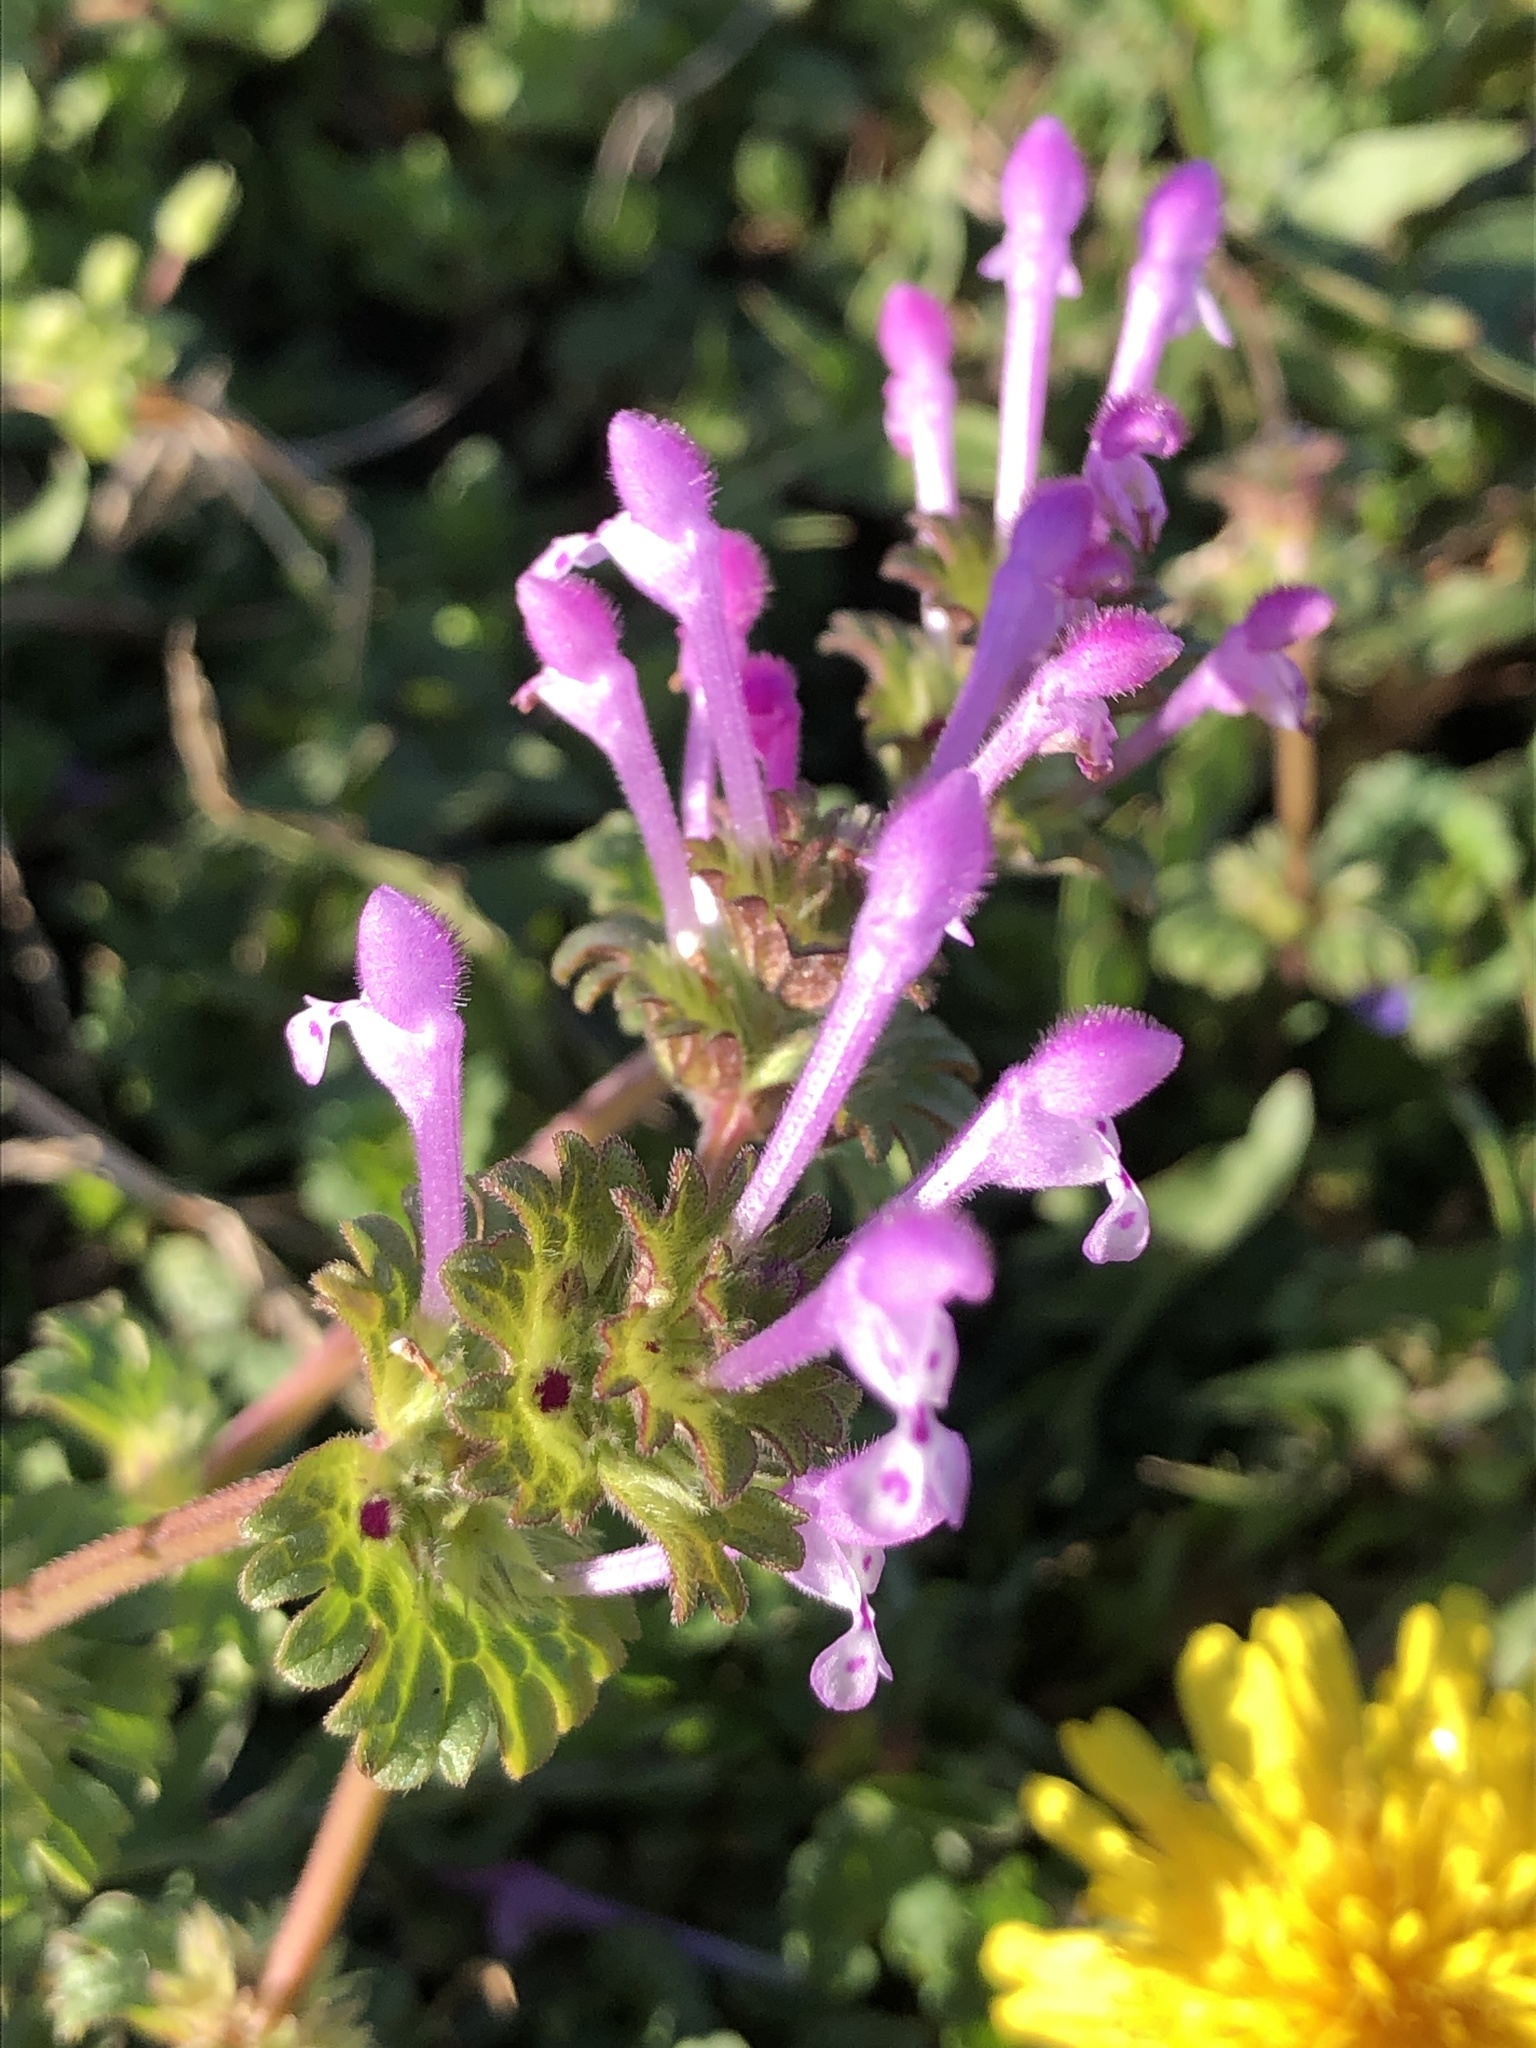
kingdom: Plantae
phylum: Tracheophyta
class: Magnoliopsida
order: Lamiales
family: Lamiaceae
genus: Lamium
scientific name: Lamium amplexicaule
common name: Henbit dead-nettle
